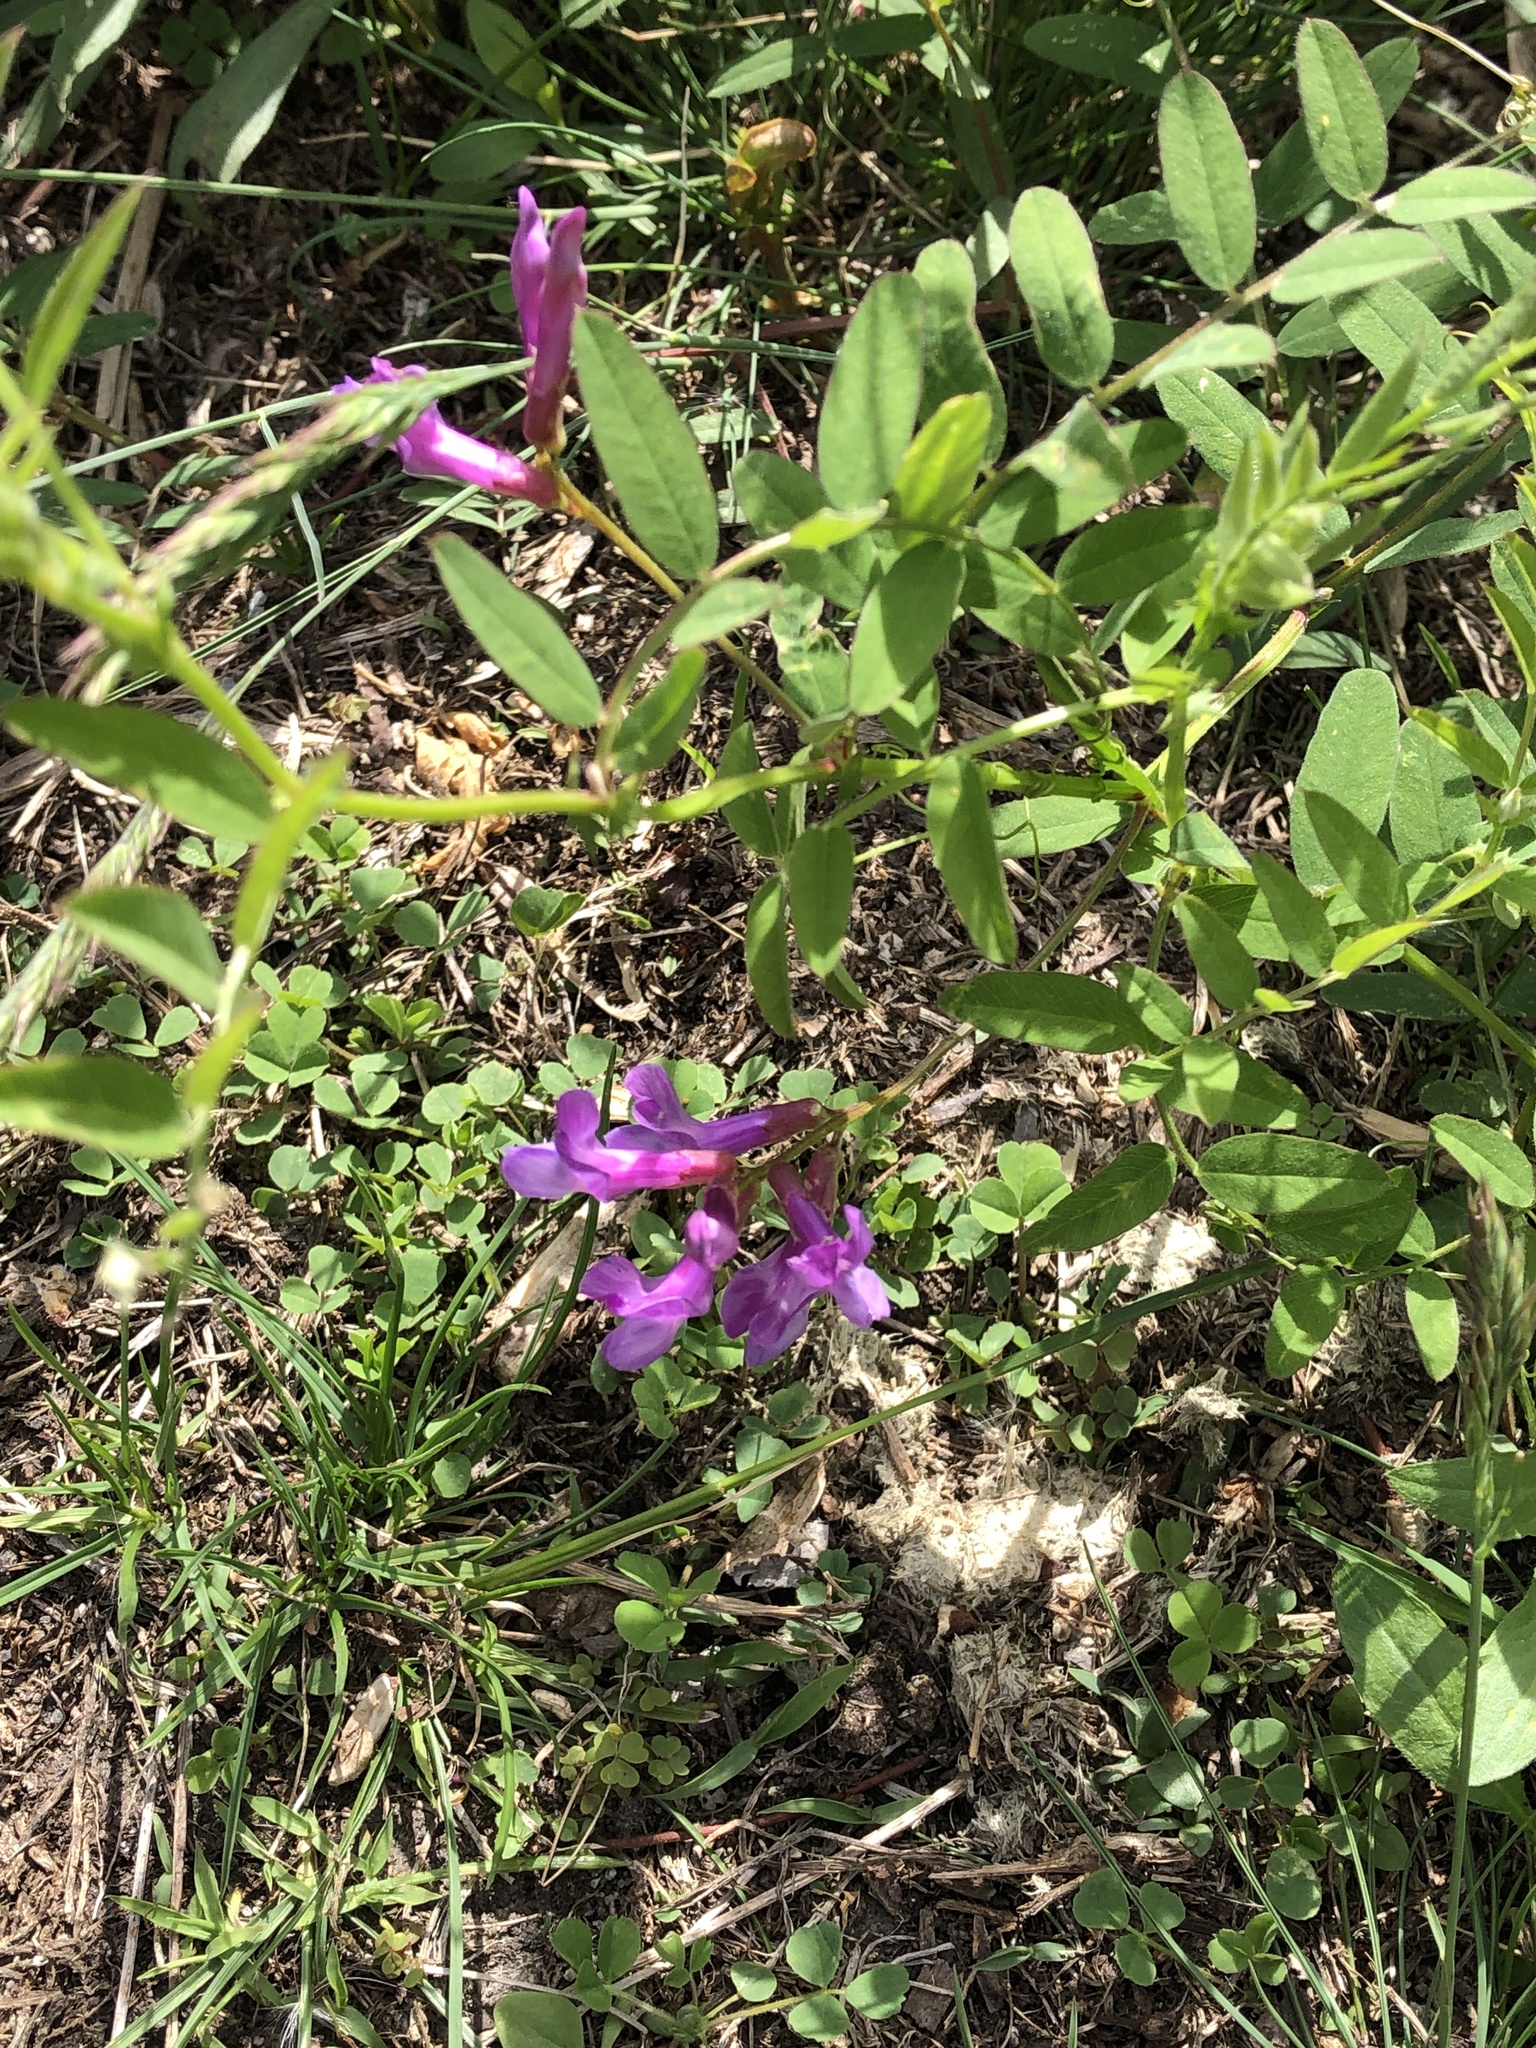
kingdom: Plantae
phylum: Tracheophyta
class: Magnoliopsida
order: Fabales
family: Fabaceae
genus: Vicia
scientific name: Vicia americana
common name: American vetch
